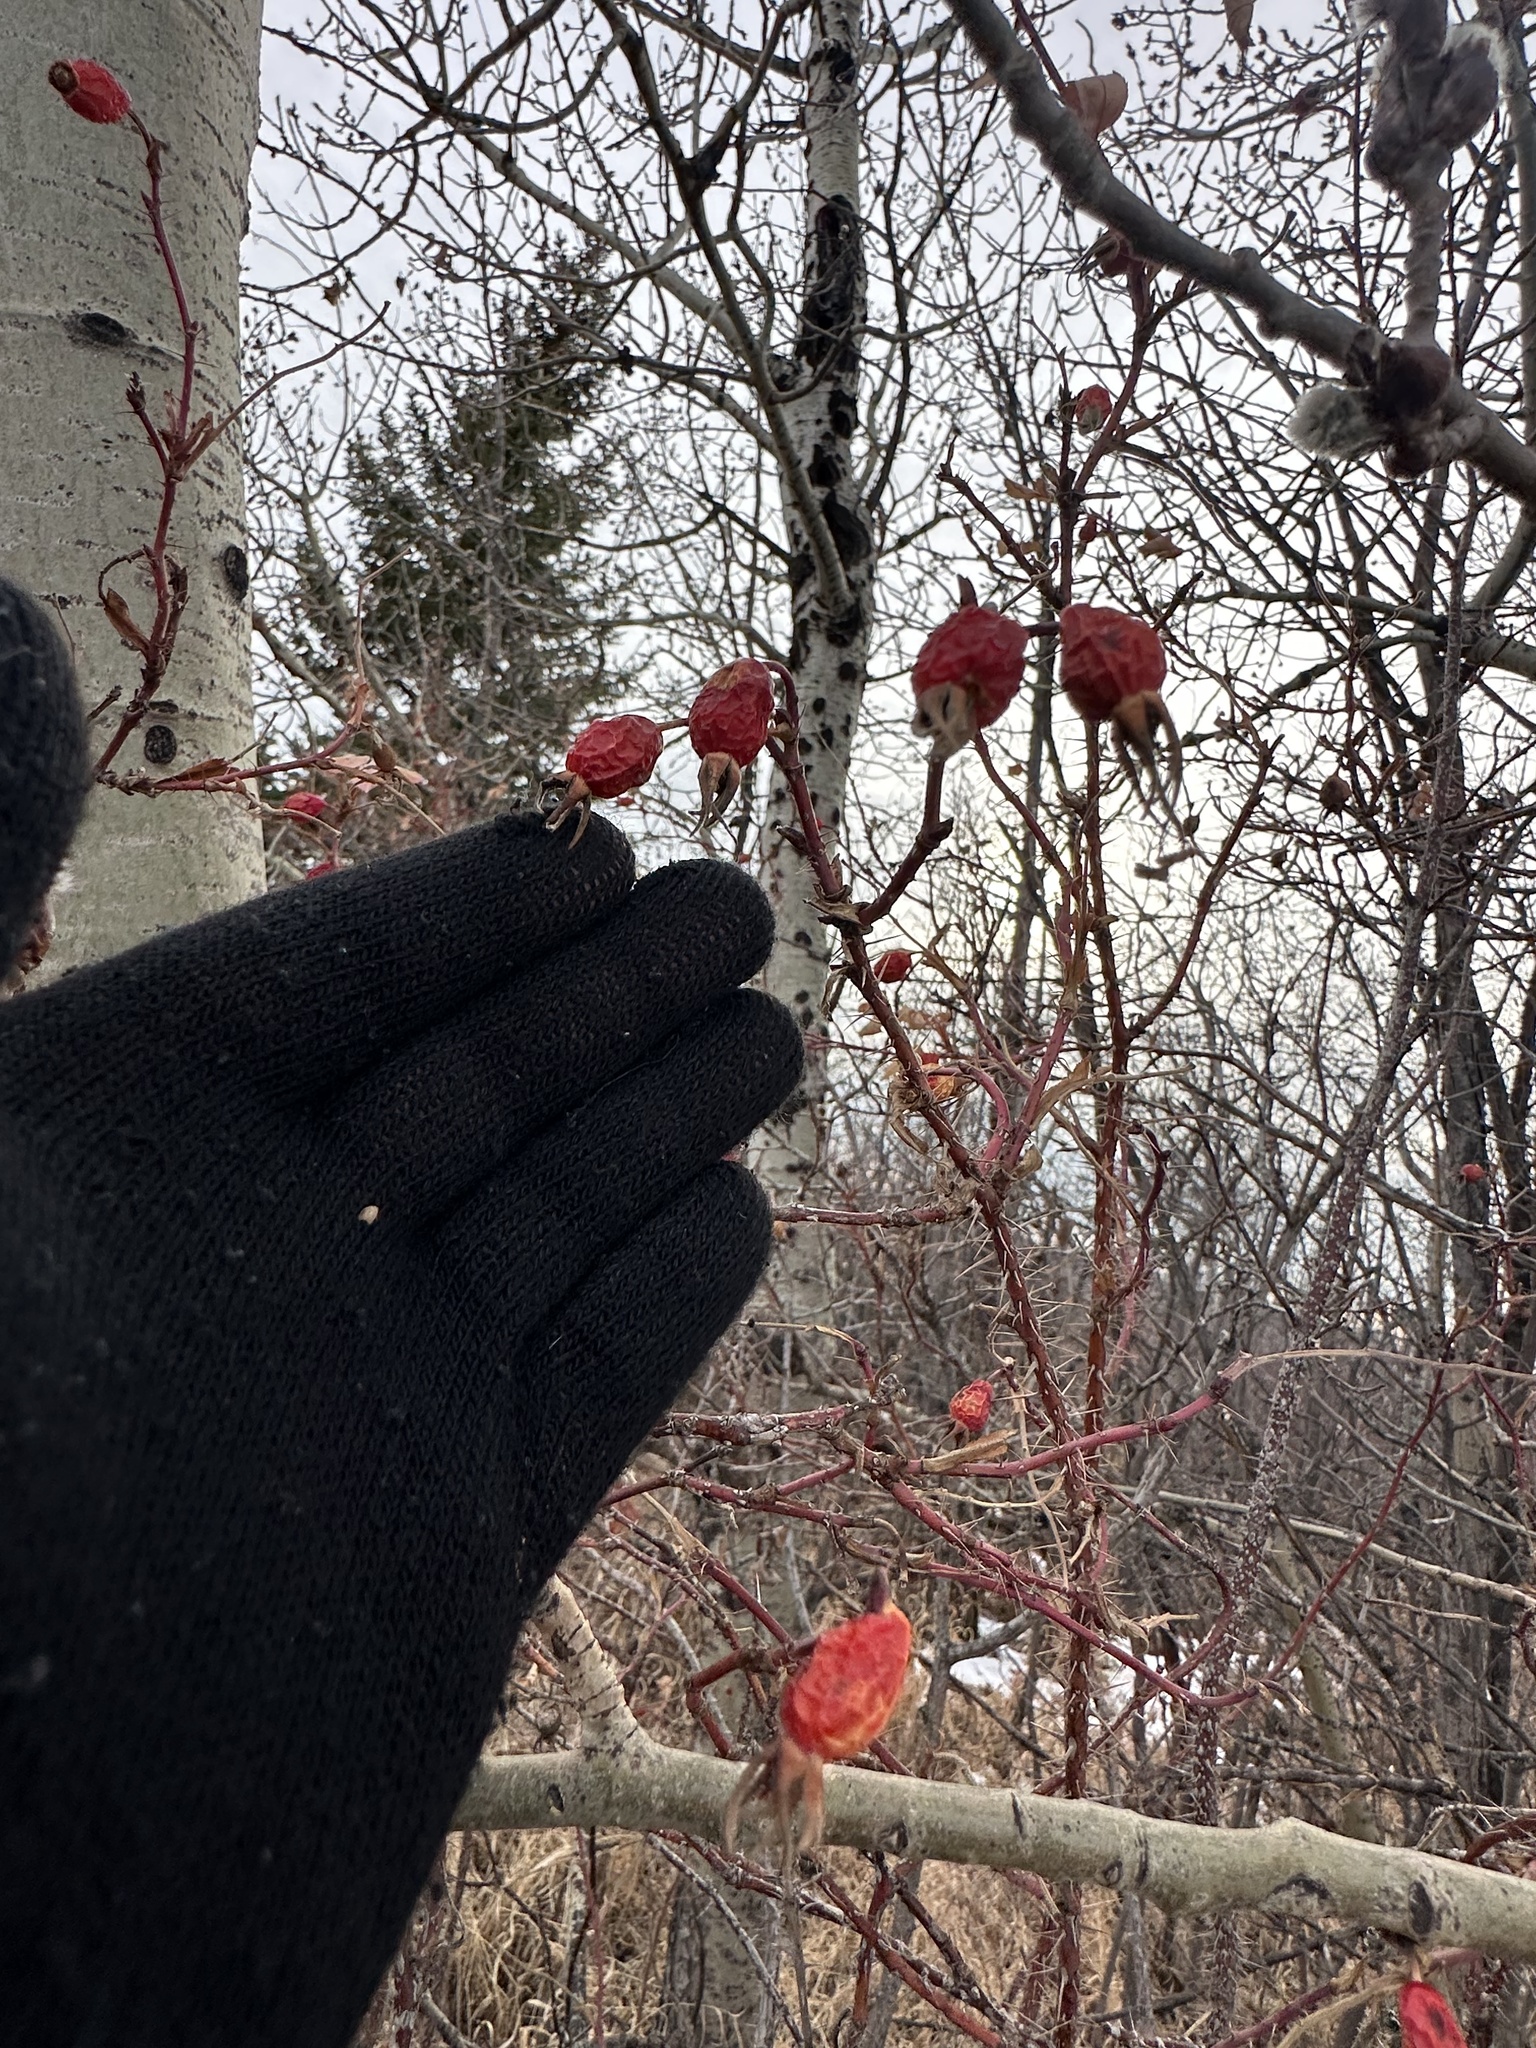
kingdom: Plantae
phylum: Tracheophyta
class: Magnoliopsida
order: Rosales
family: Rosaceae
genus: Rosa
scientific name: Rosa acicularis
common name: Prickly rose
